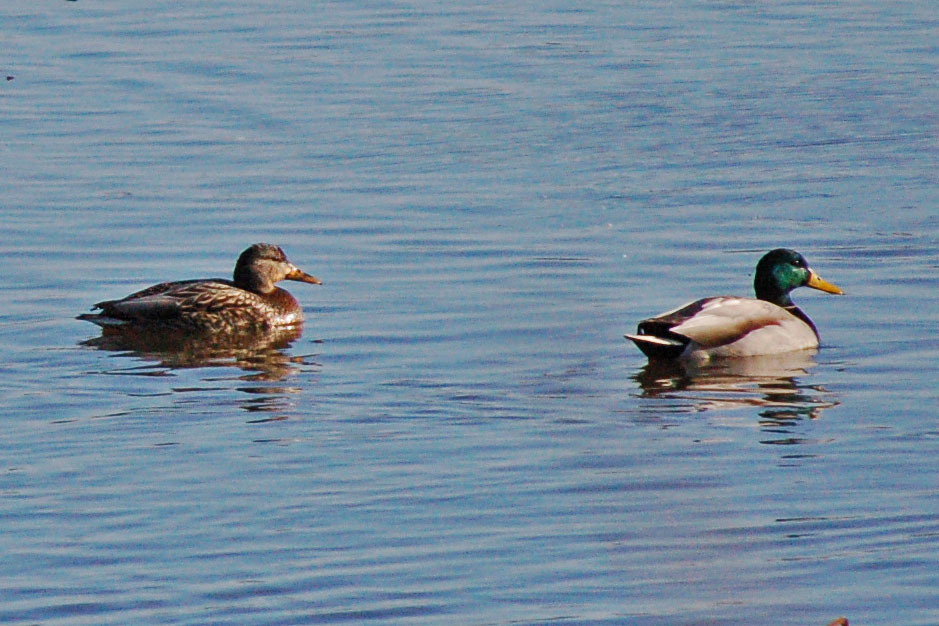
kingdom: Animalia
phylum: Chordata
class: Aves
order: Anseriformes
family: Anatidae
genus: Anas
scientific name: Anas platyrhynchos
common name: Mallard
